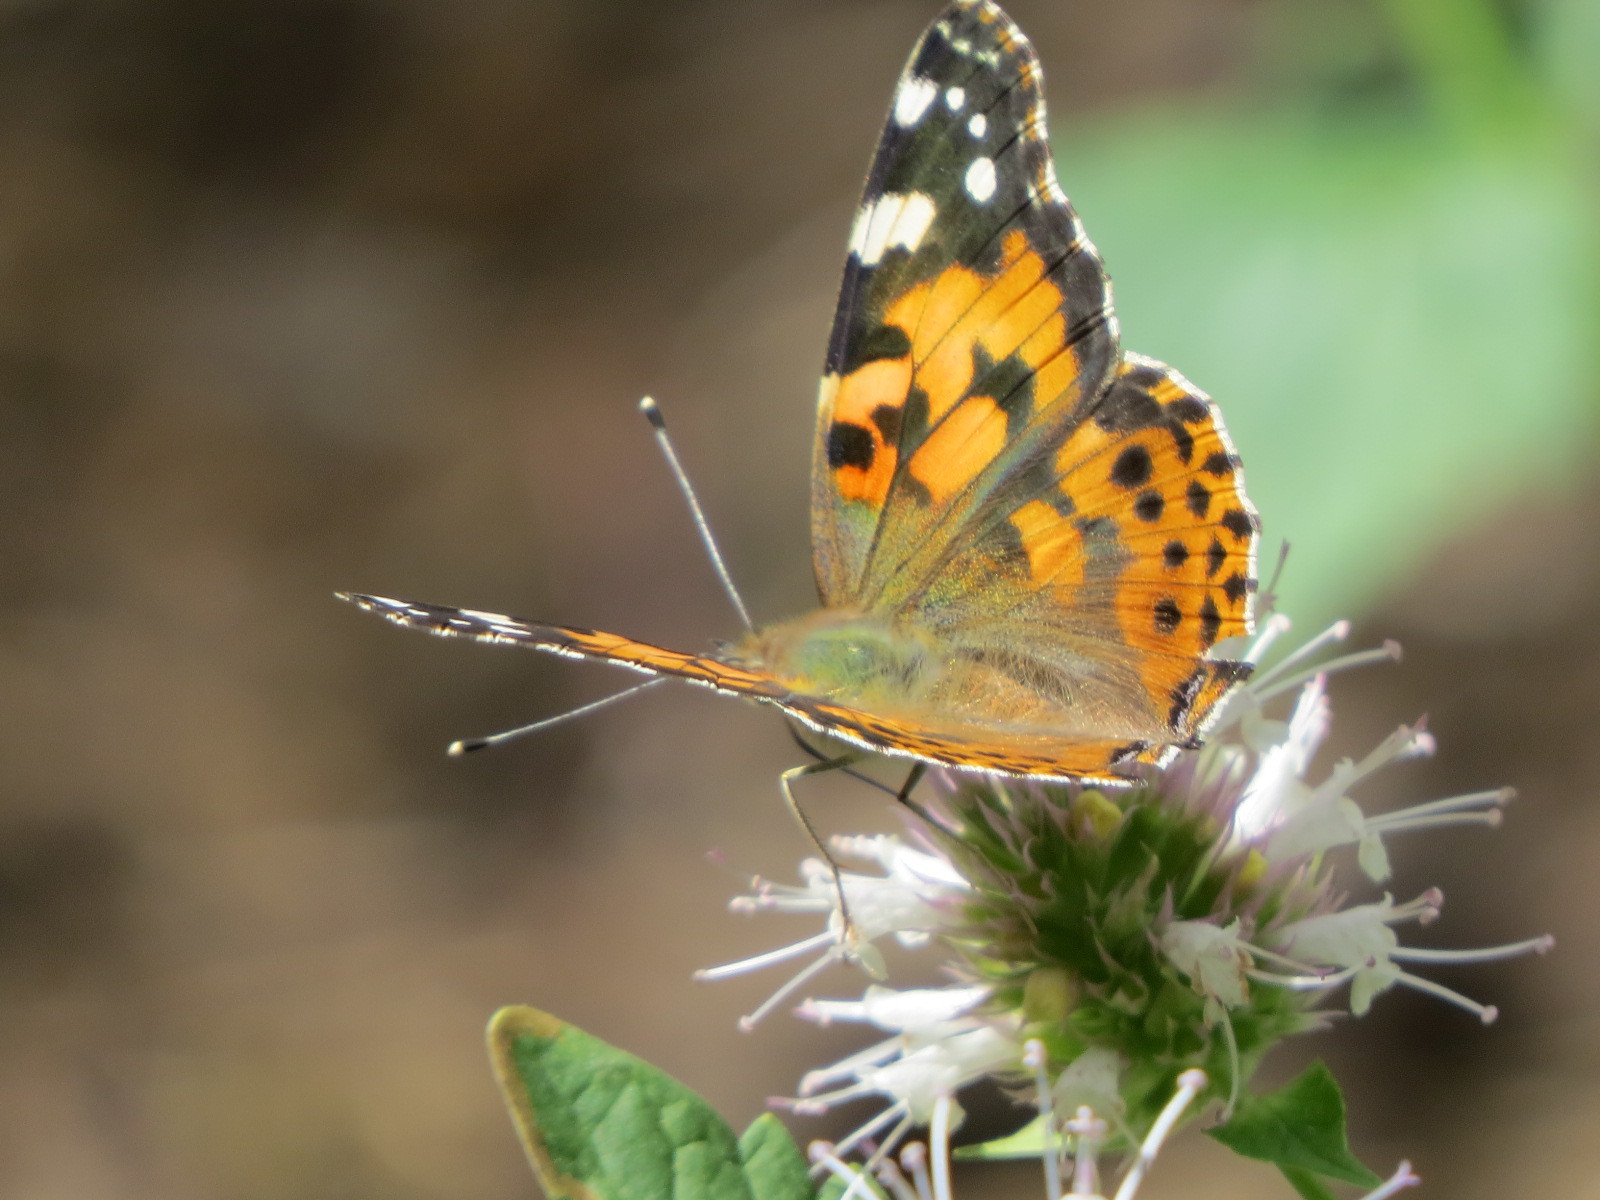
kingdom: Animalia
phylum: Arthropoda
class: Insecta
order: Lepidoptera
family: Nymphalidae
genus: Vanessa
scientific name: Vanessa cardui
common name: Painted lady
